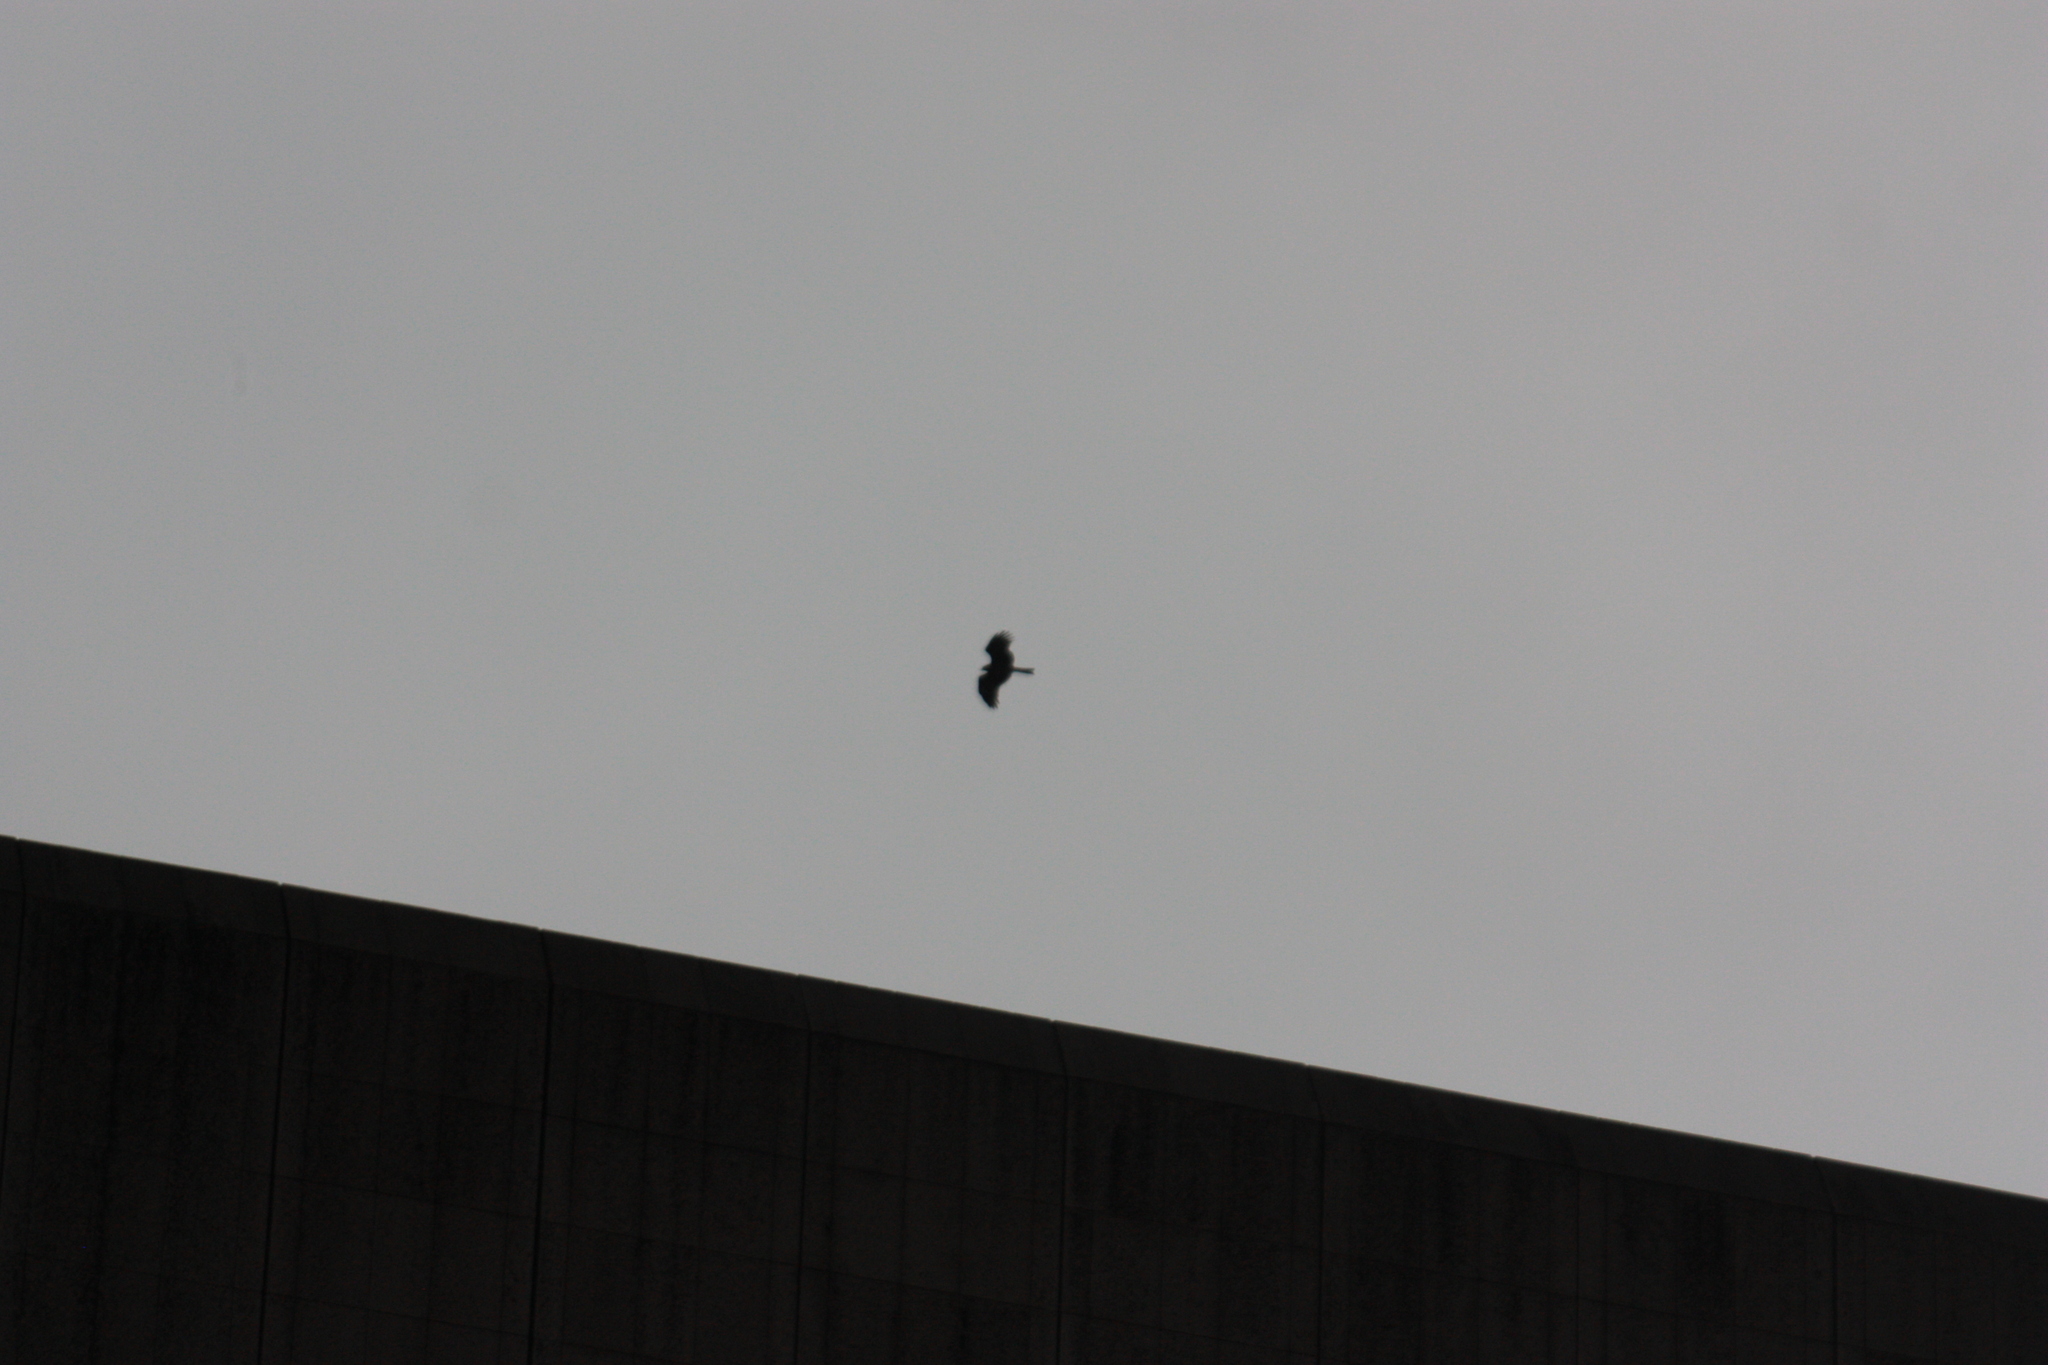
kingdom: Animalia
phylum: Chordata
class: Aves
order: Accipitriformes
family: Accipitridae
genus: Milvus
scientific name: Milvus migrans
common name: Black kite
